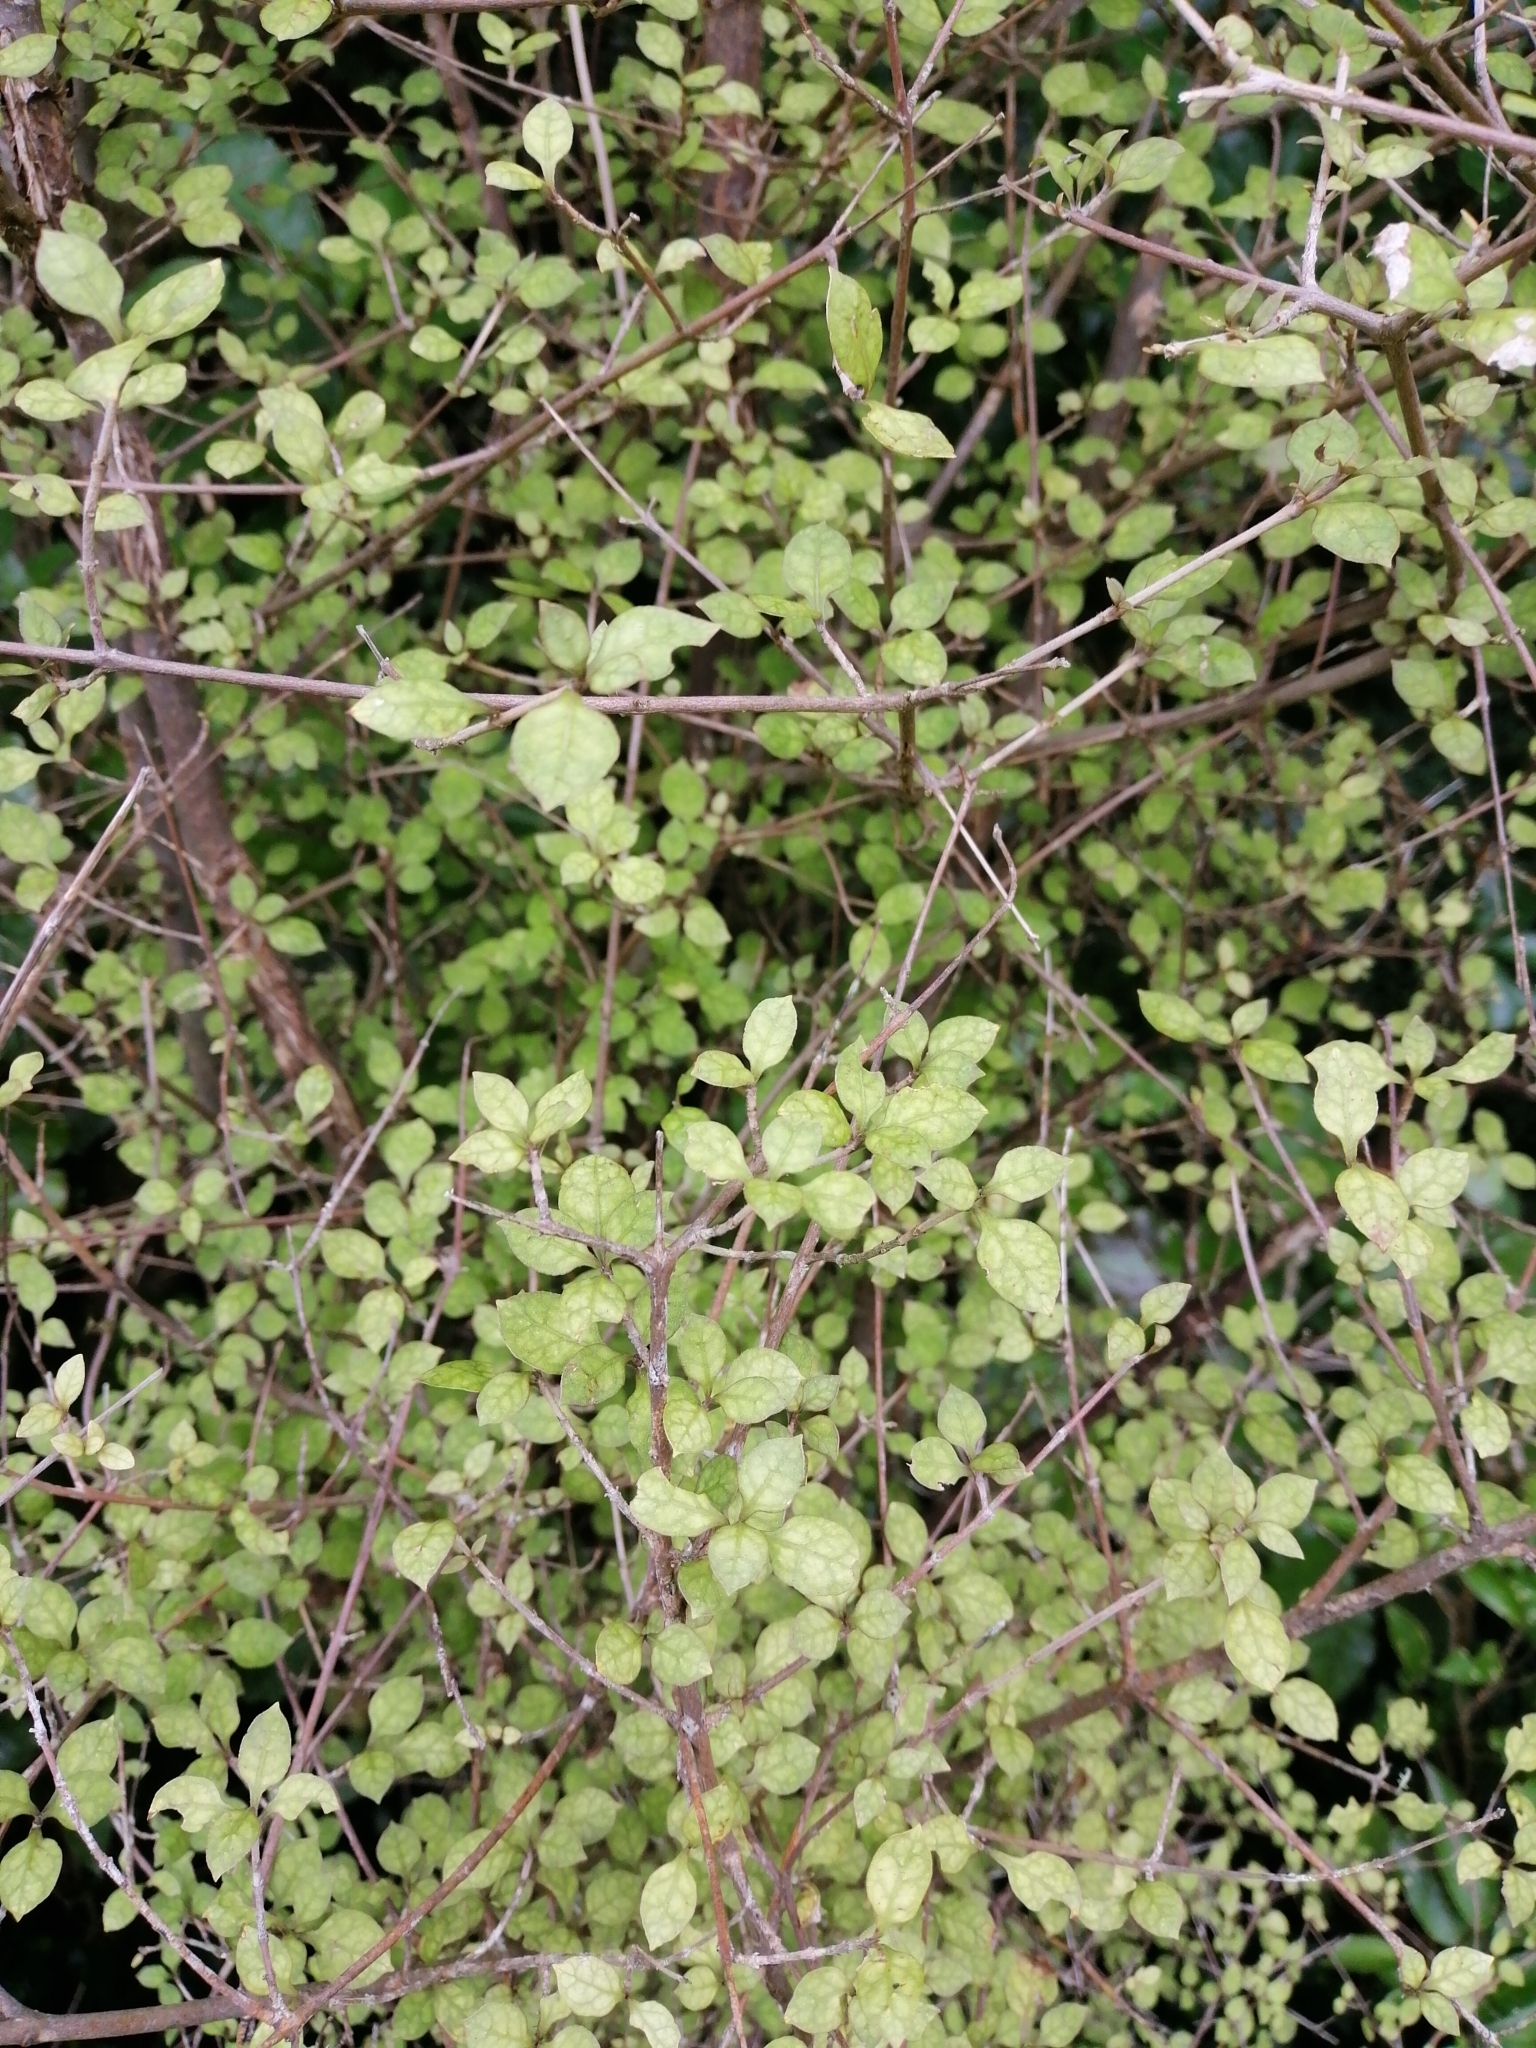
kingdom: Plantae
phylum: Tracheophyta
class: Magnoliopsida
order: Gentianales
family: Rubiaceae
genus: Coprosma
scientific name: Coprosma areolata
